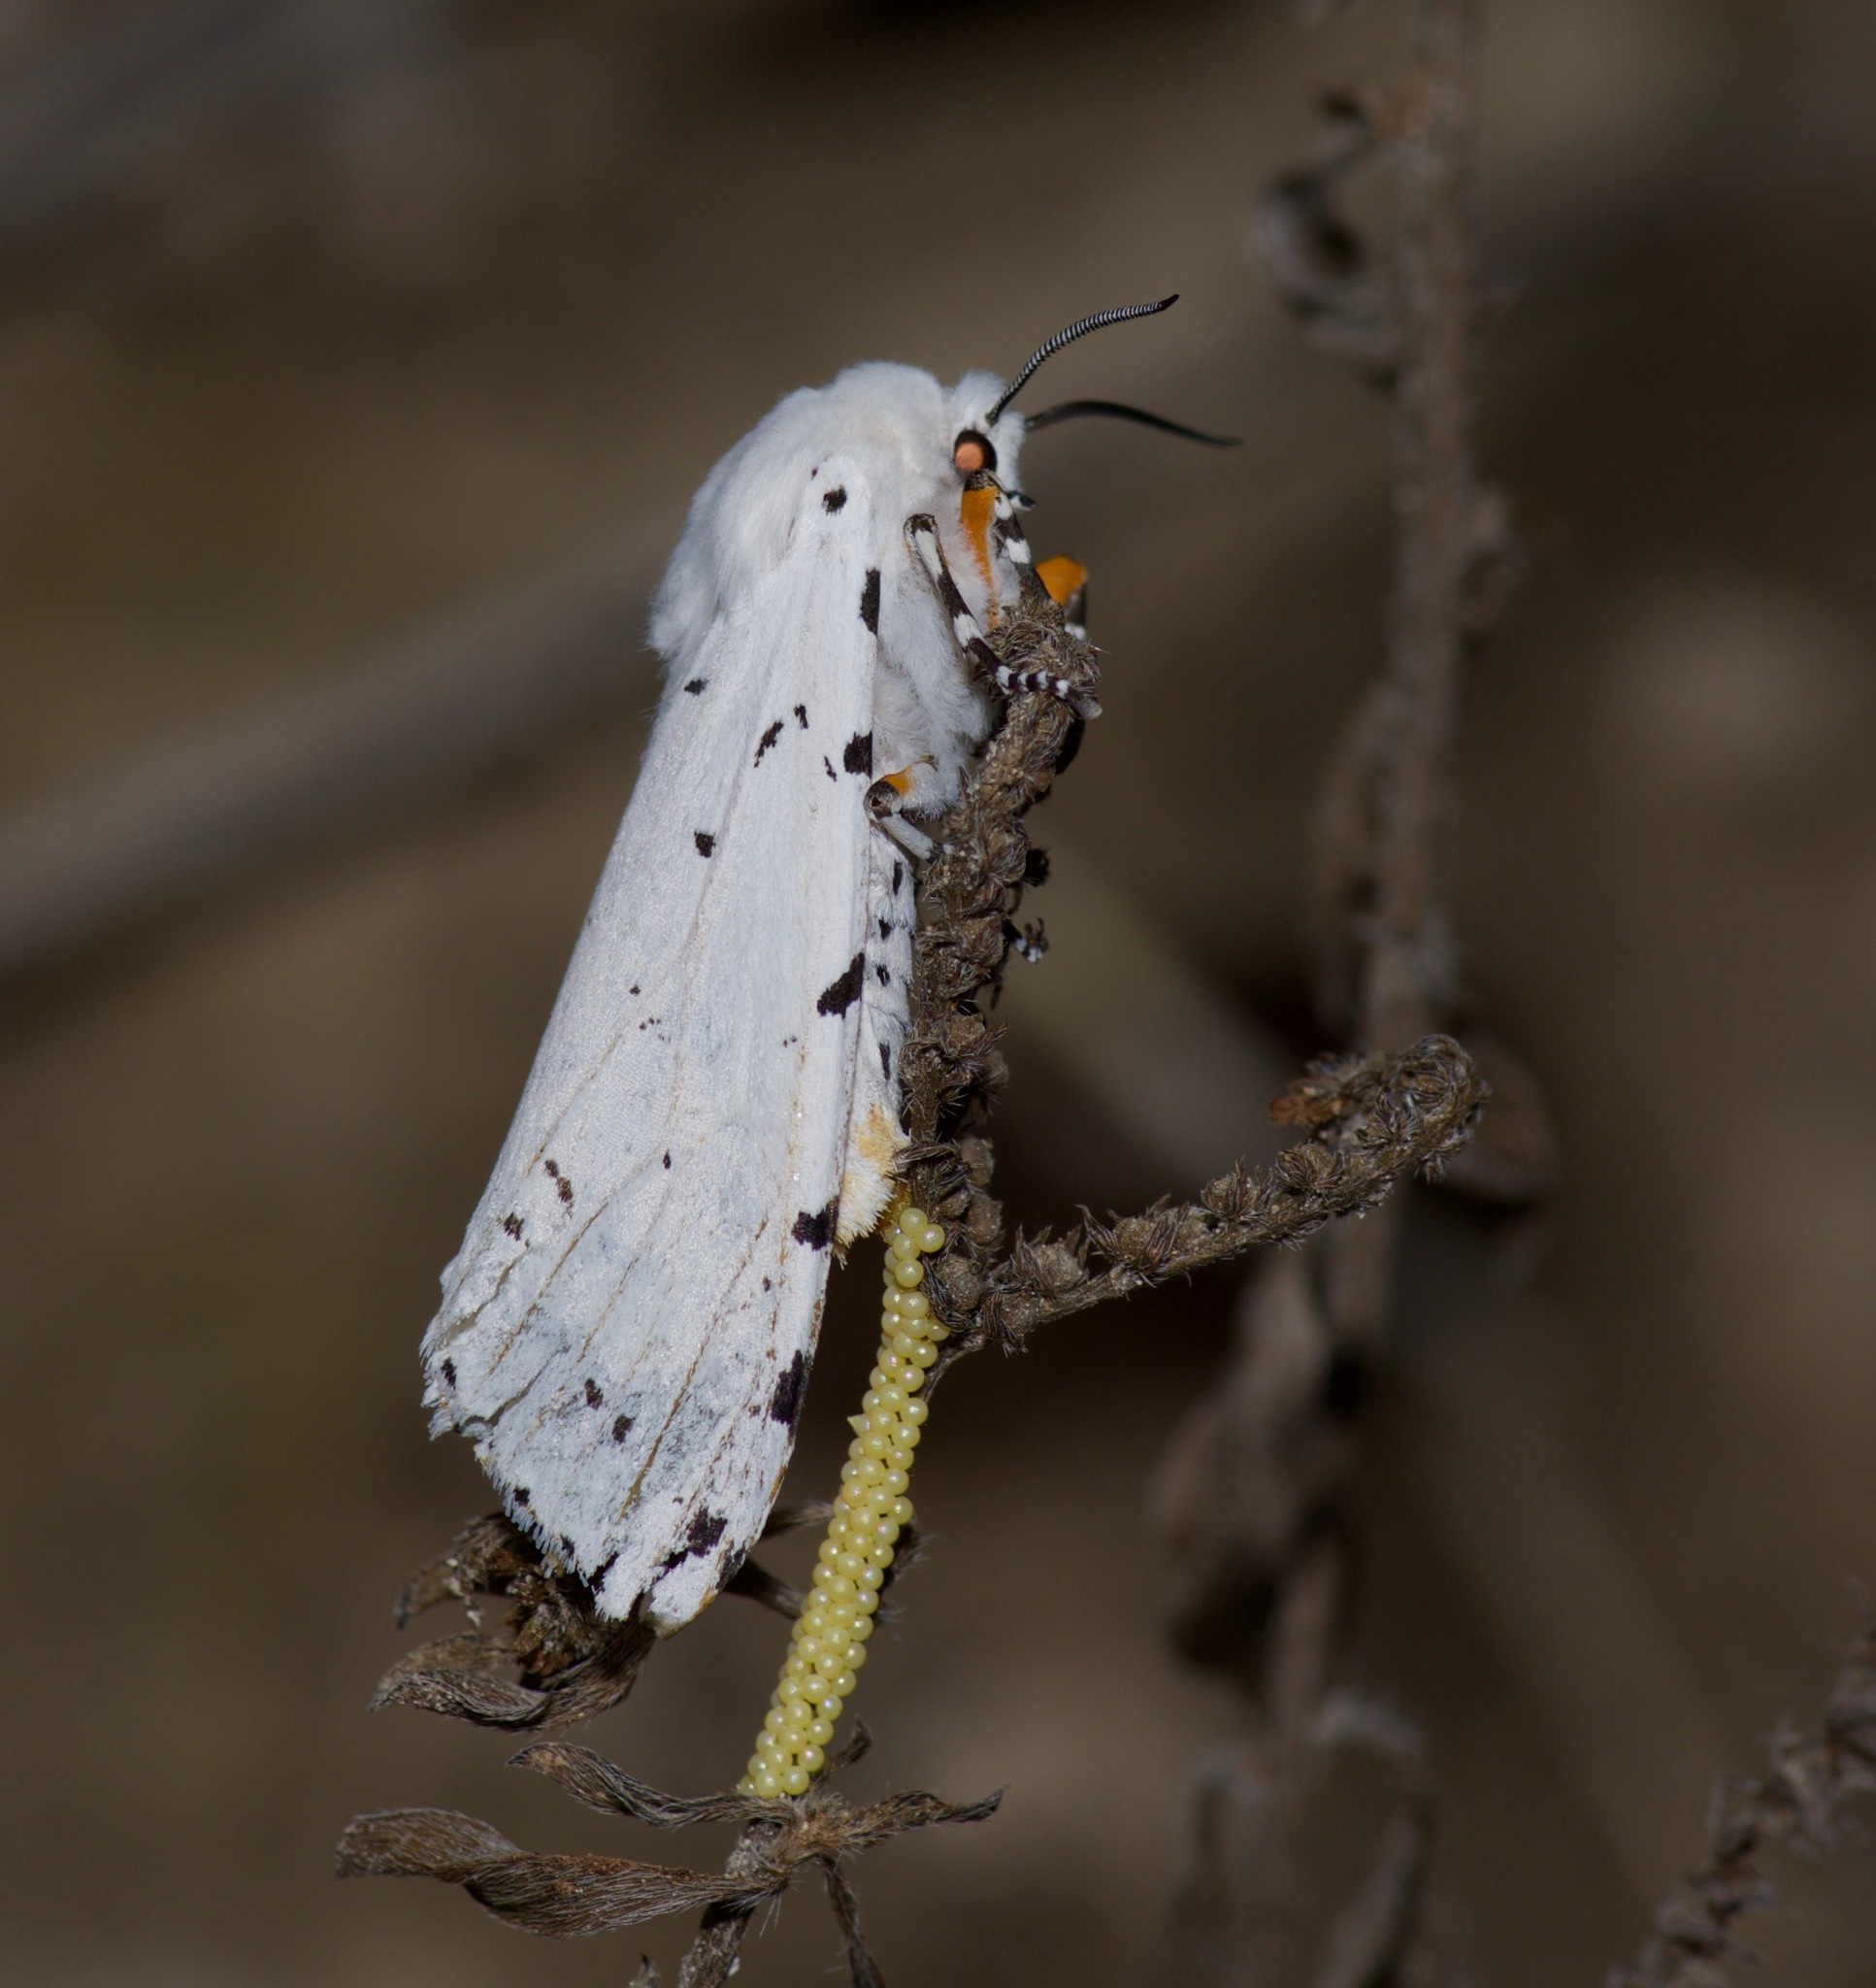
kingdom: Animalia
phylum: Arthropoda
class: Insecta
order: Lepidoptera
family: Erebidae
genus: Estigmene
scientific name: Estigmene acrea
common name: Salt marsh moth
